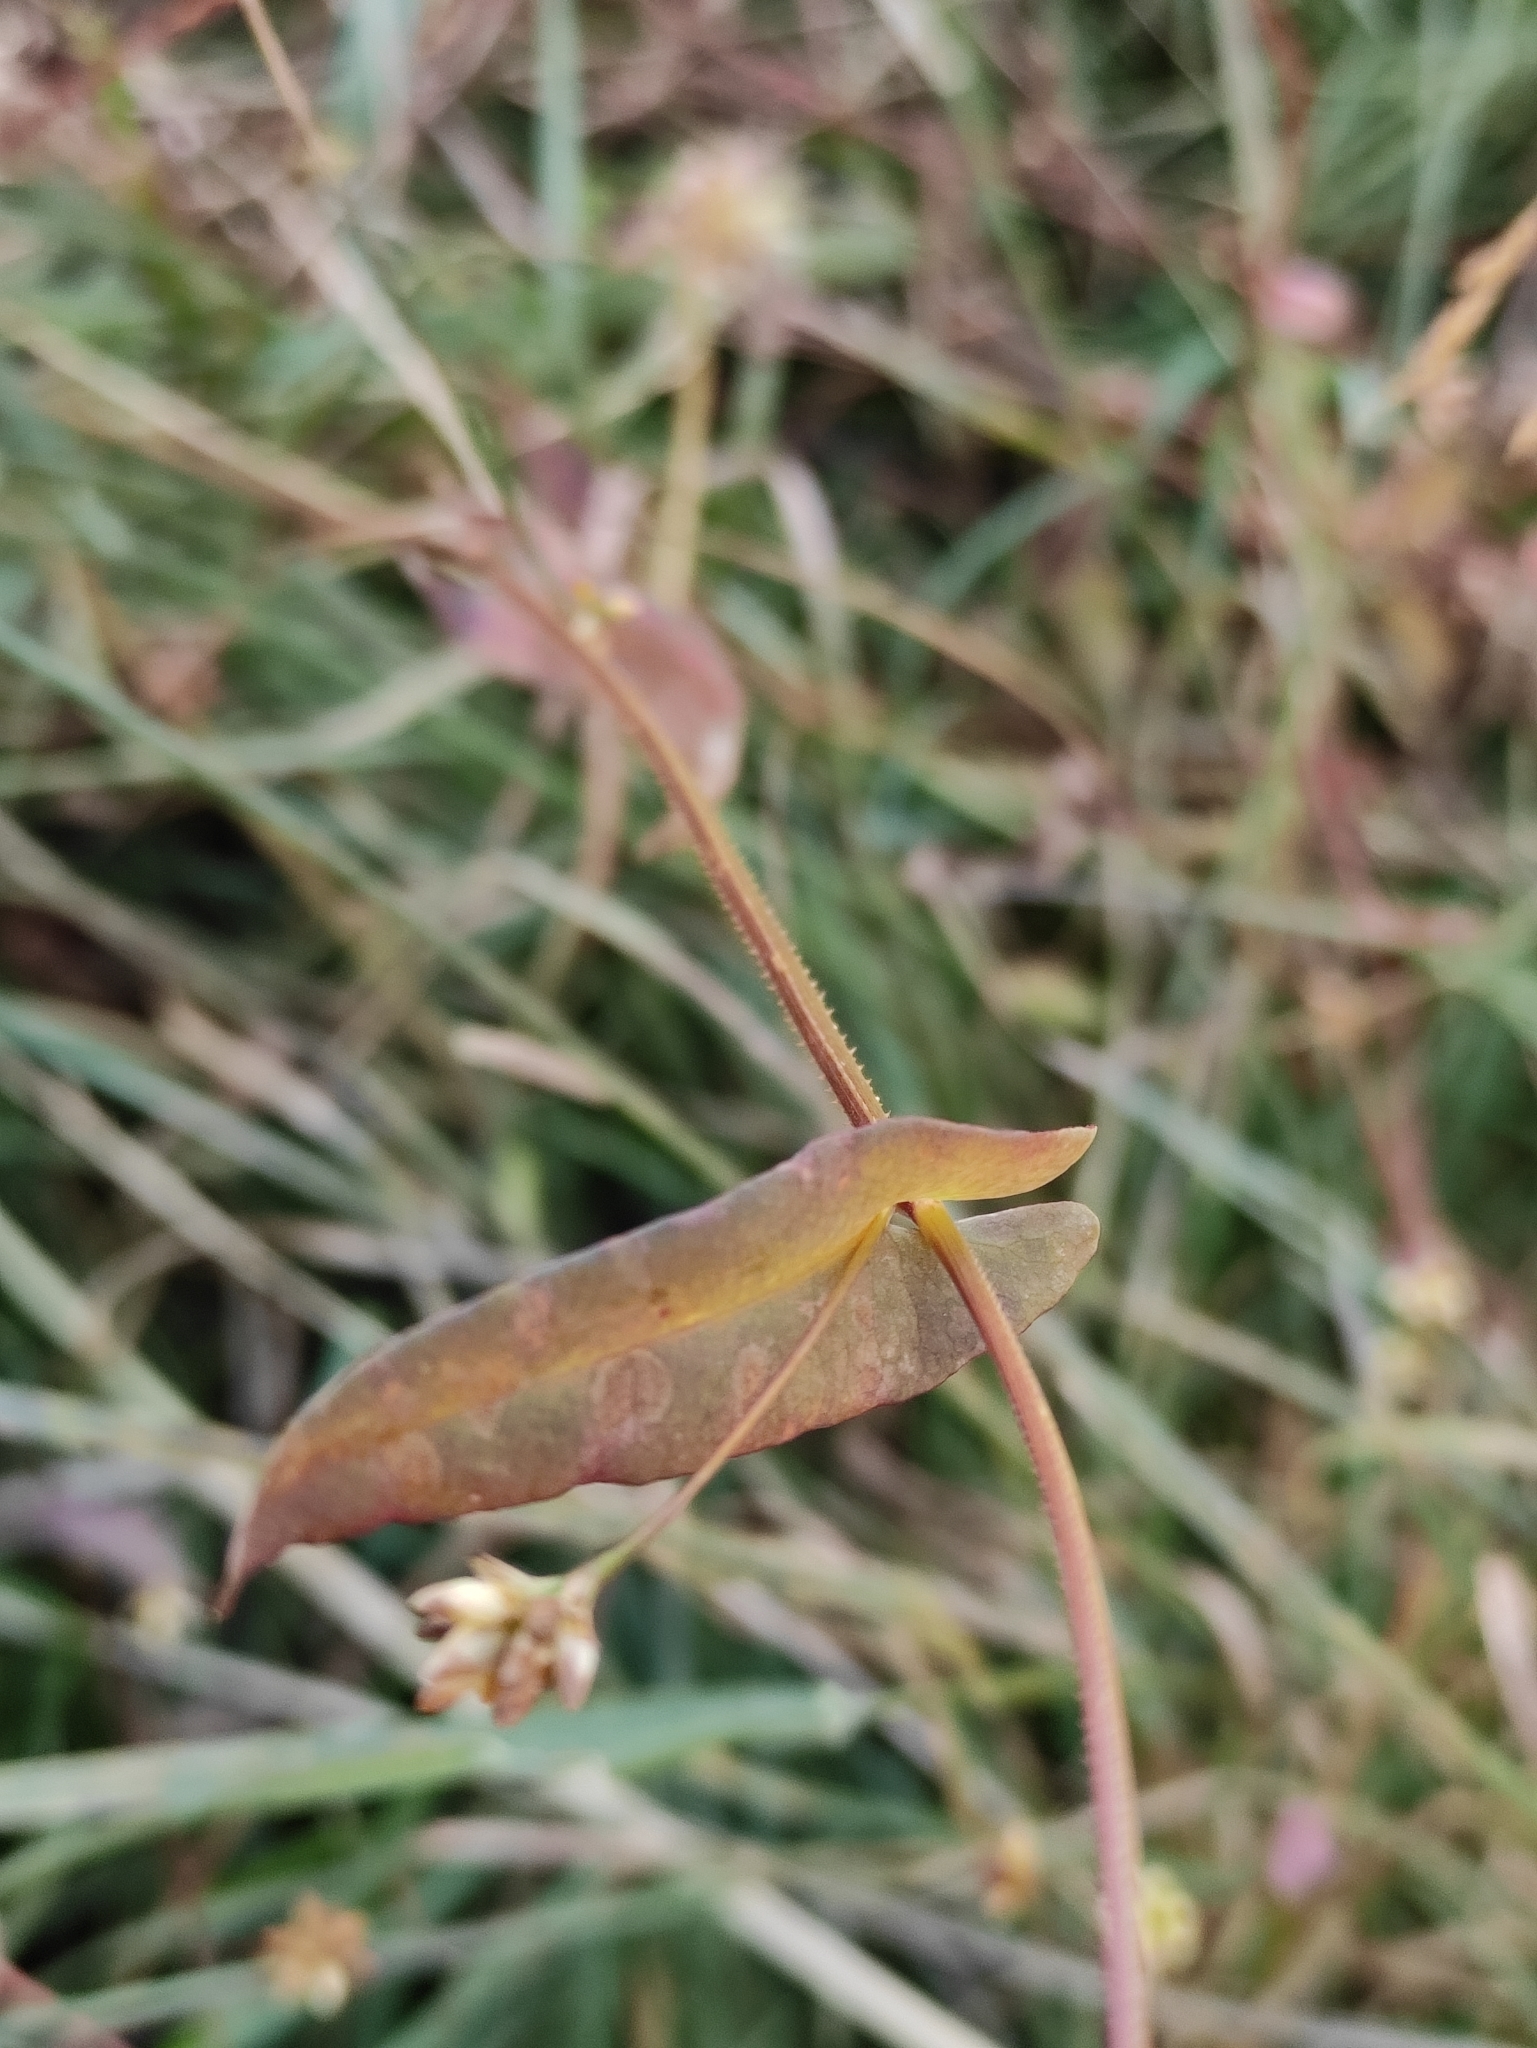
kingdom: Plantae
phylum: Tracheophyta
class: Magnoliopsida
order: Caryophyllales
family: Polygonaceae
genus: Persicaria
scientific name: Persicaria sagittata
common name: American tearthumb
